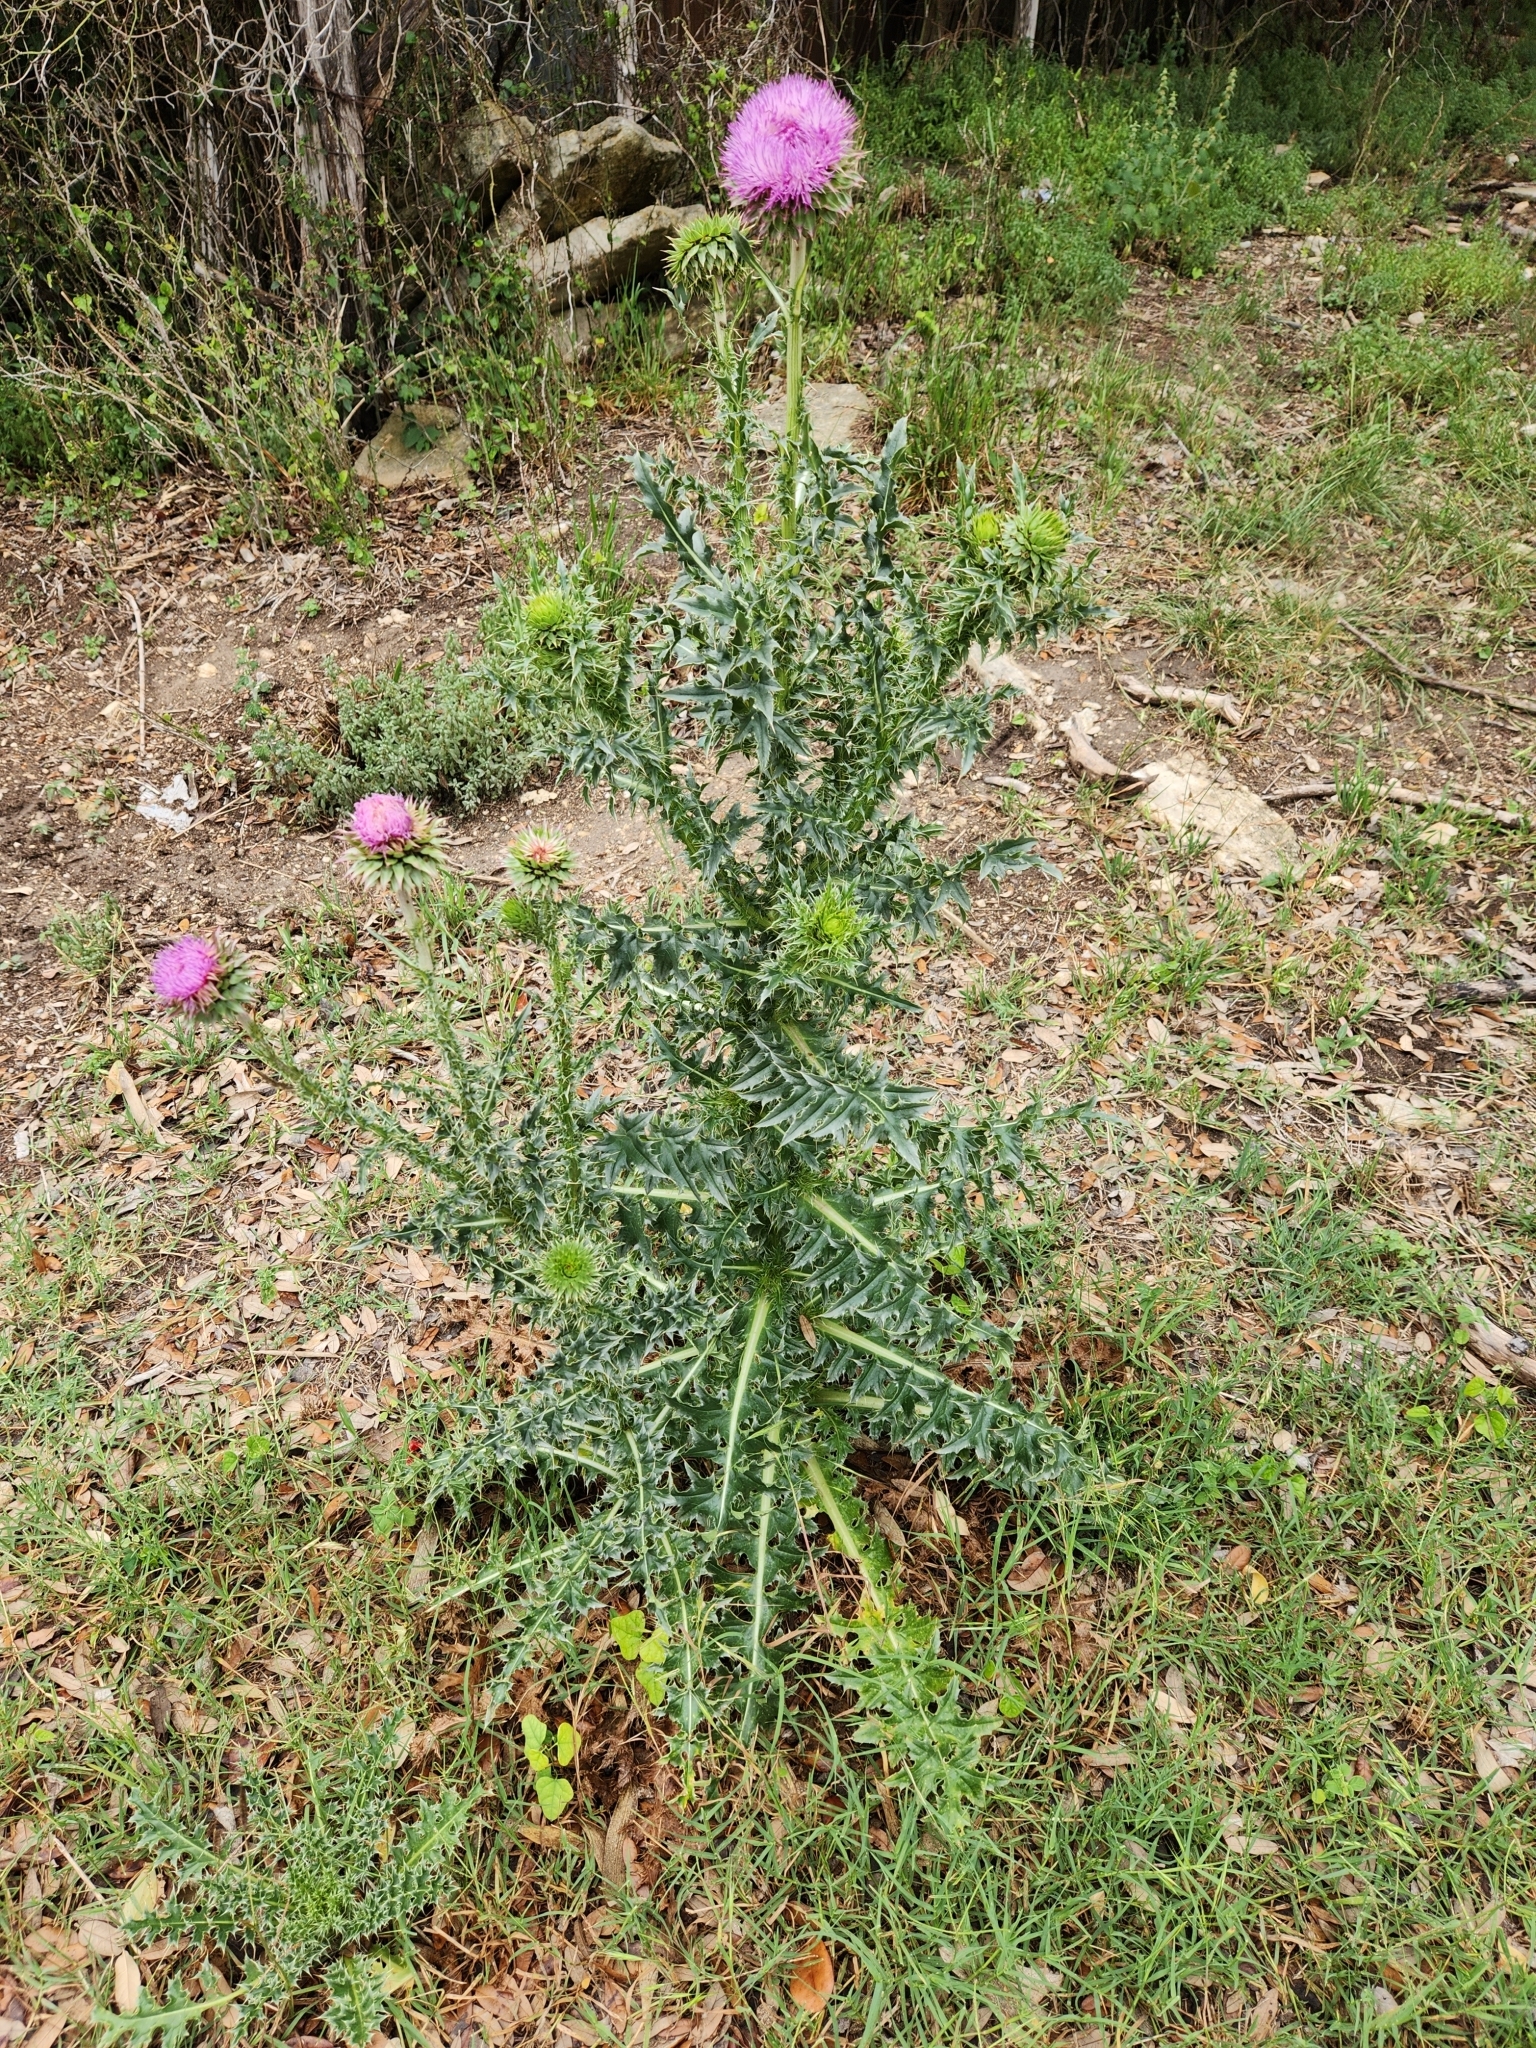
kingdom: Plantae
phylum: Tracheophyta
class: Magnoliopsida
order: Asterales
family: Asteraceae
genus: Carduus
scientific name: Carduus nutans
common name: Musk thistle
